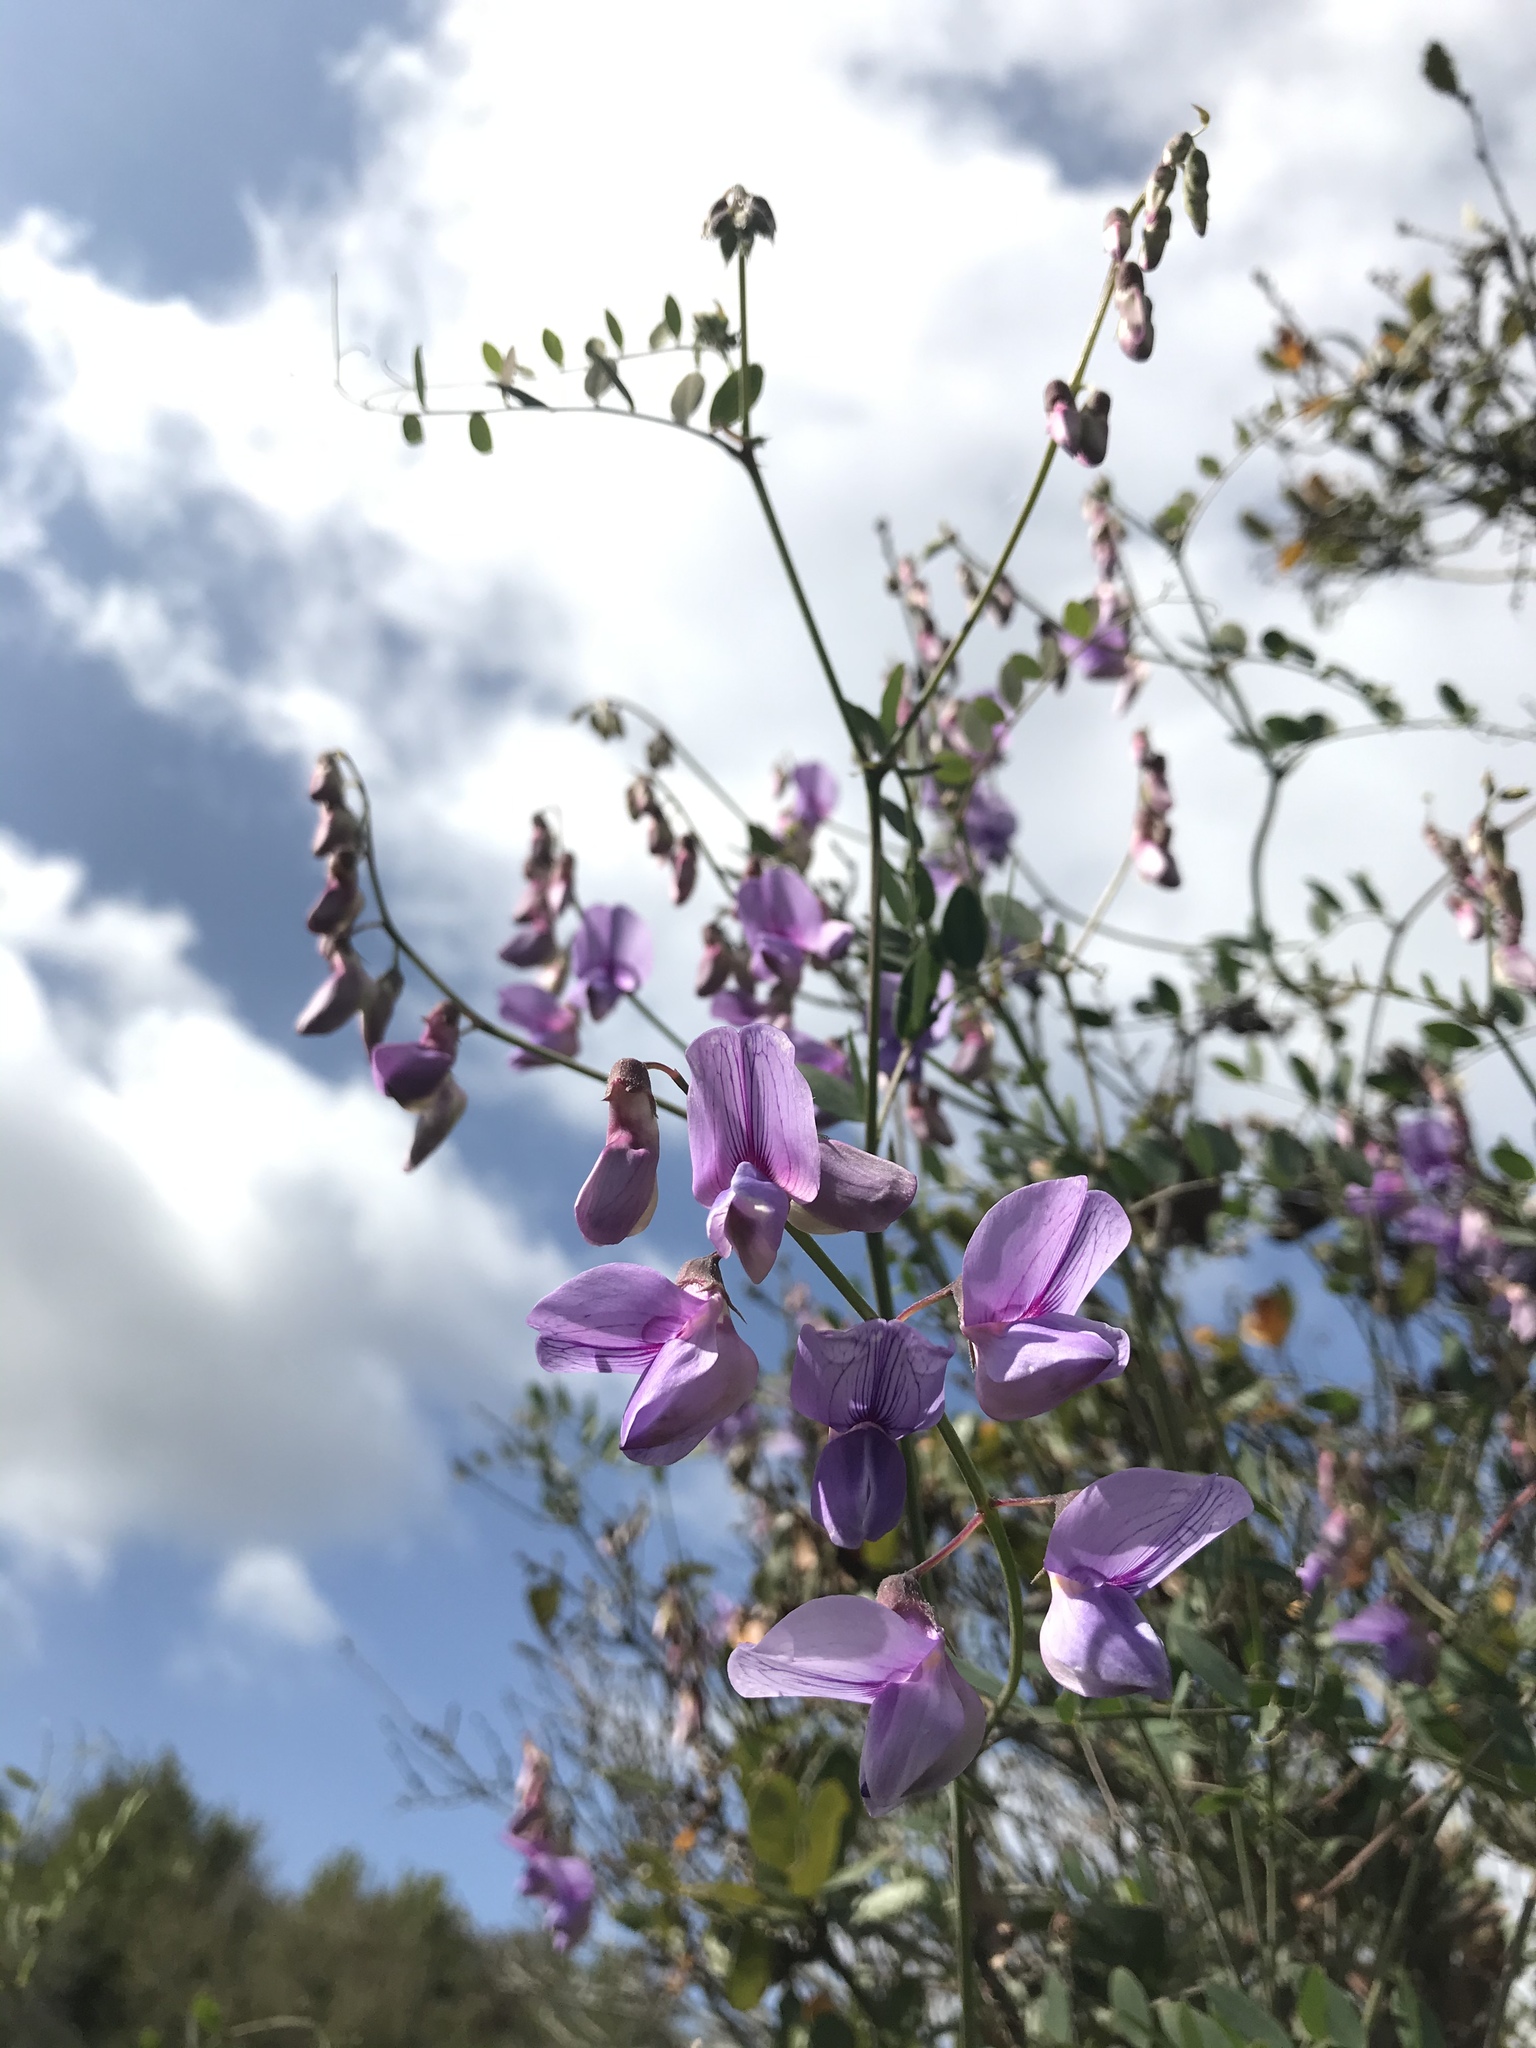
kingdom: Plantae
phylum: Tracheophyta
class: Magnoliopsida
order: Fabales
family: Fabaceae
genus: Lathyrus
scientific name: Lathyrus vestitus
